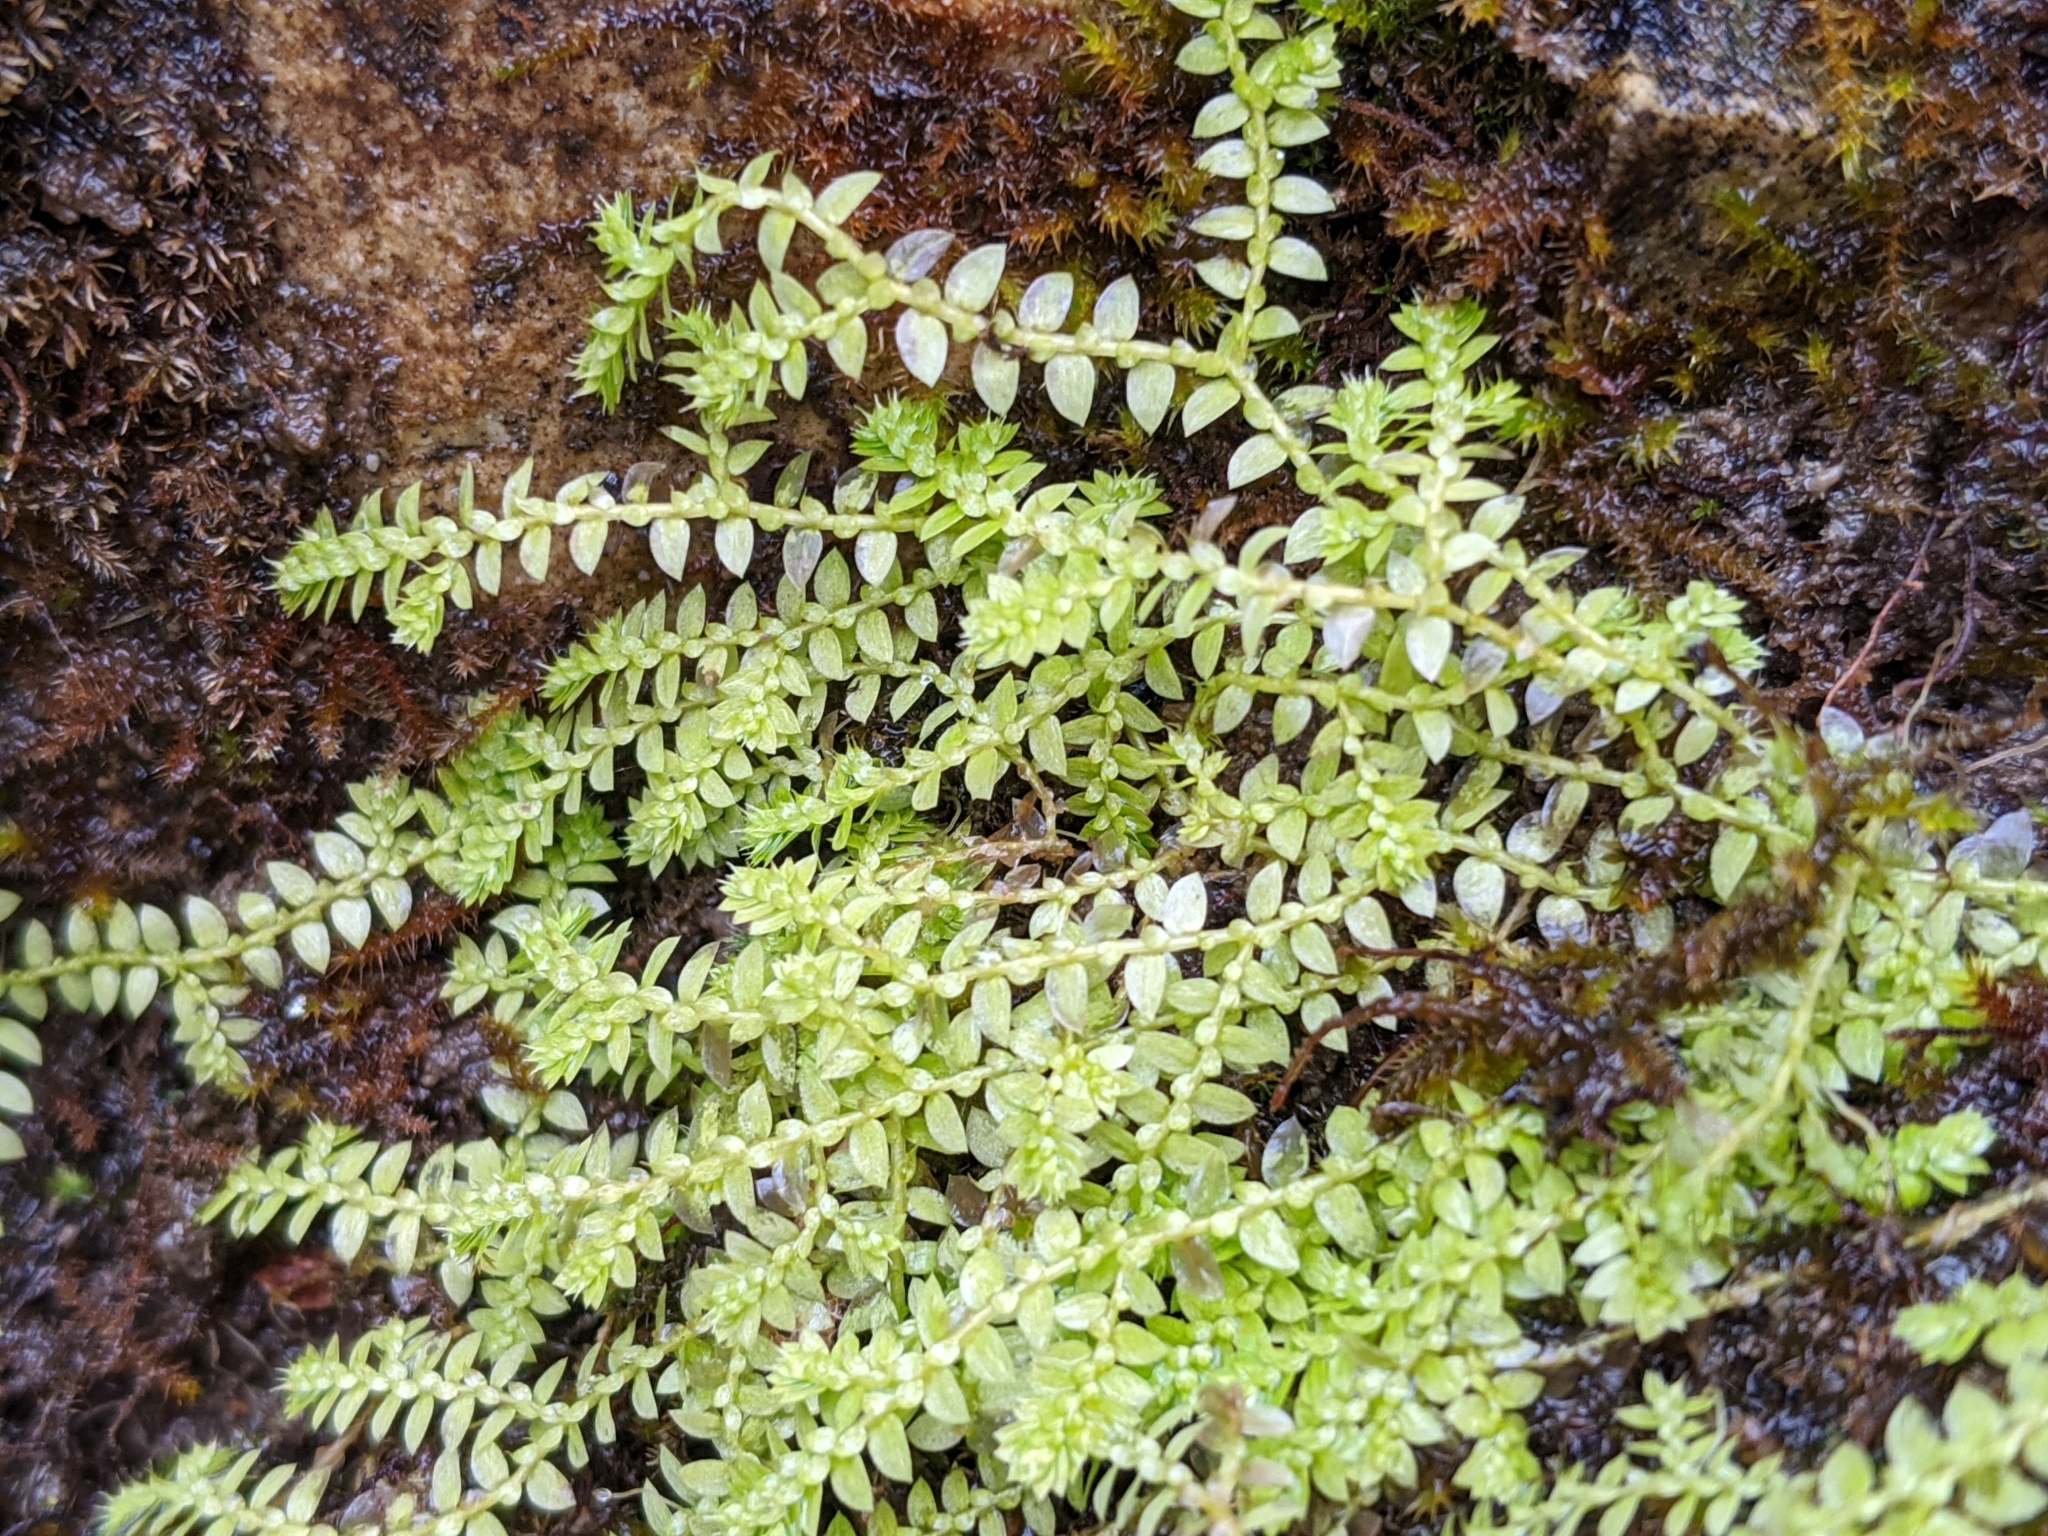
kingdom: Plantae
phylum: Tracheophyta
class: Lycopodiopsida
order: Selaginellales
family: Selaginellaceae
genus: Selaginella
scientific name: Selaginella eclipes
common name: Buck's meadow spikemoss
